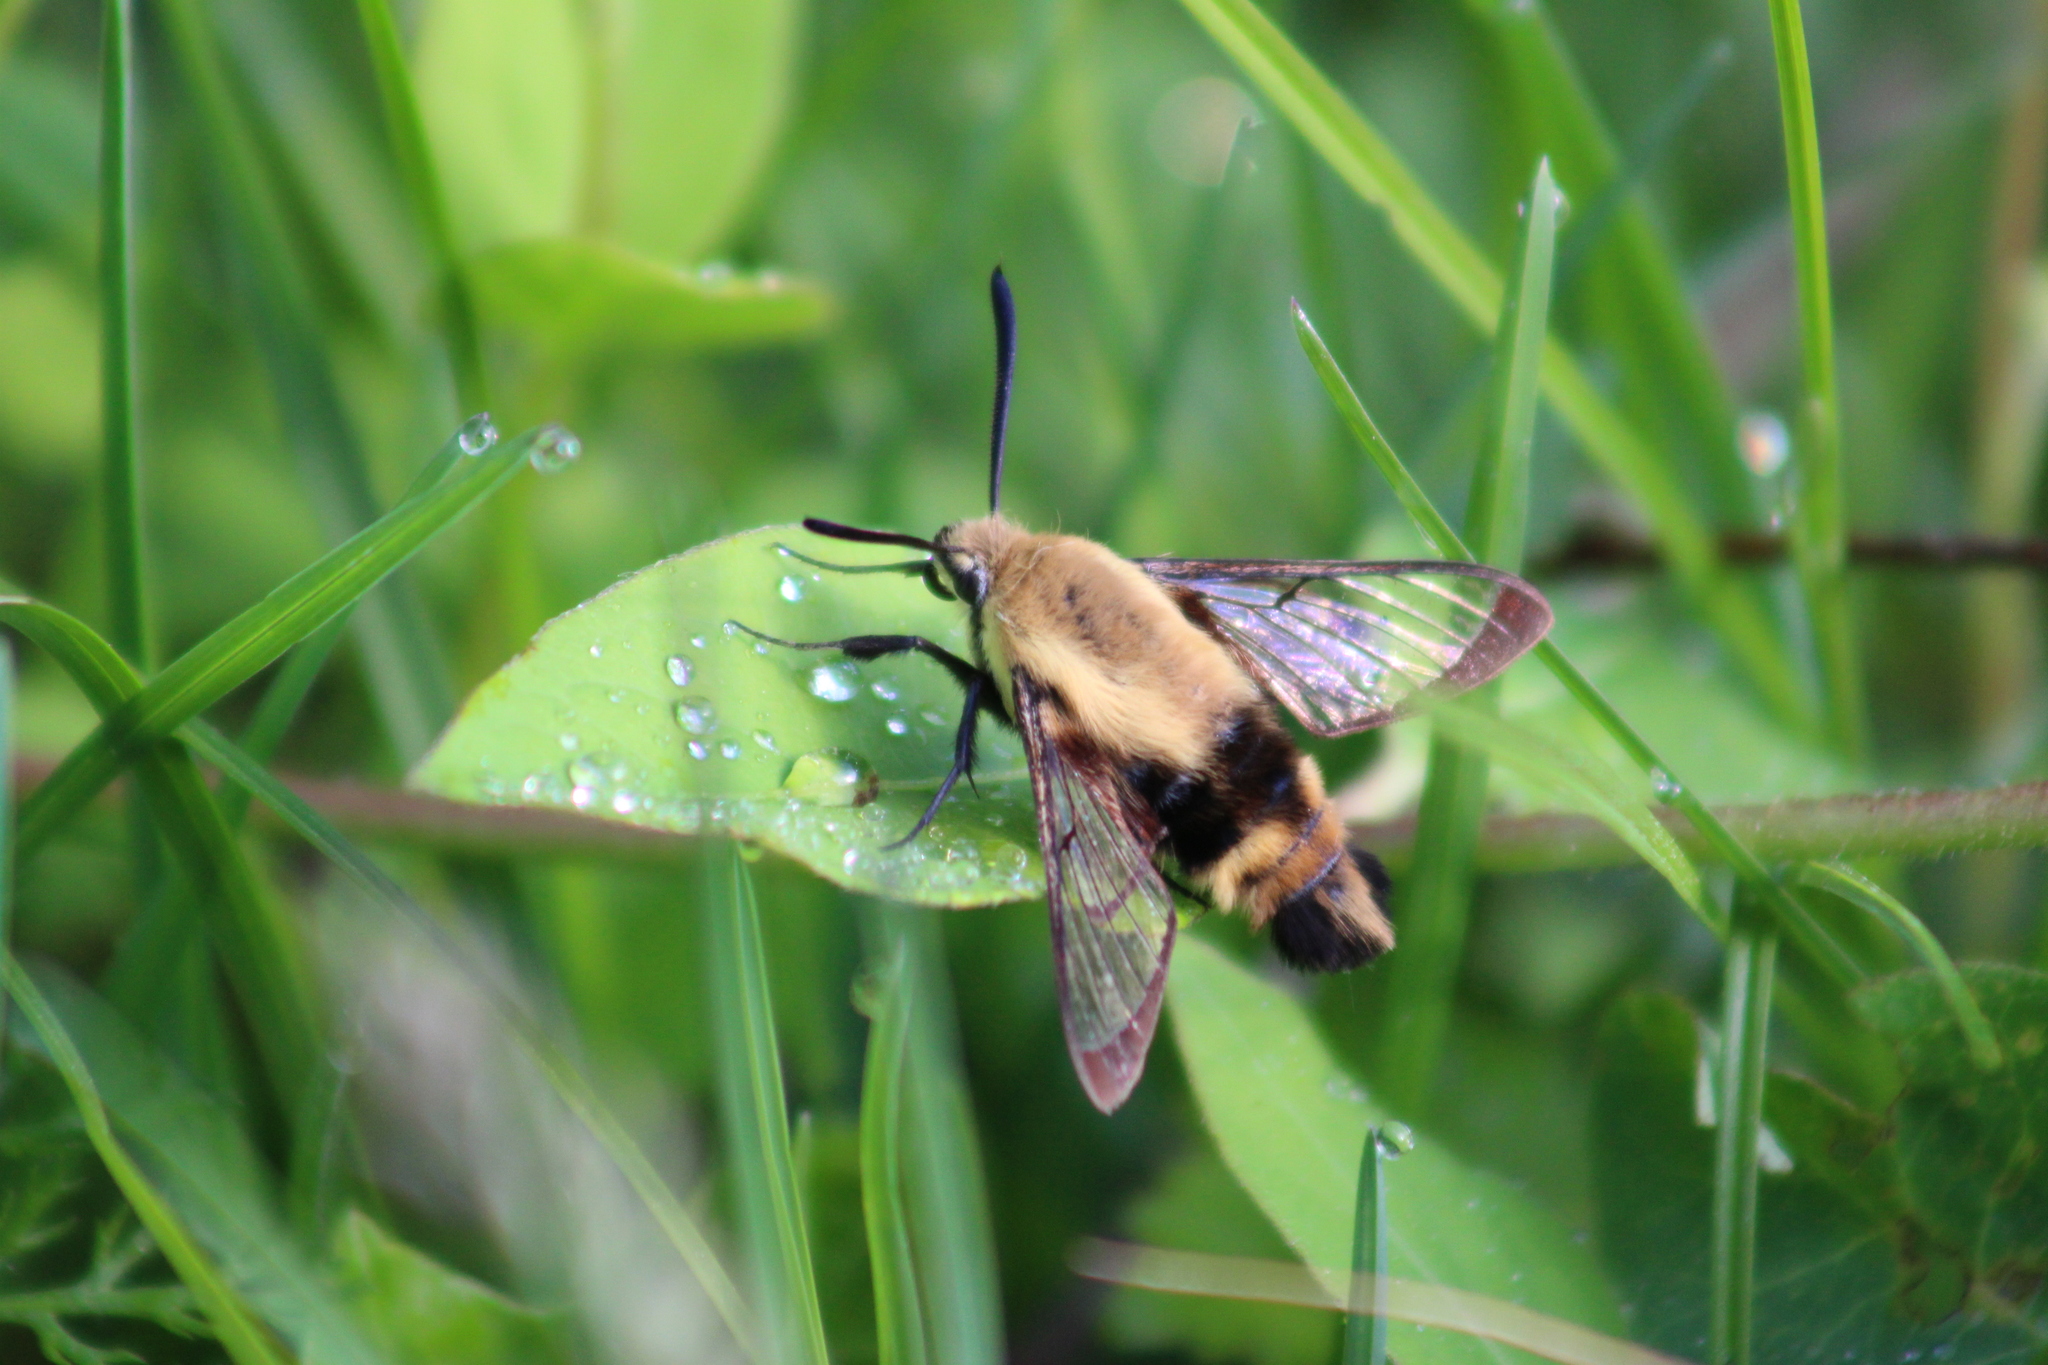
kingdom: Animalia
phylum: Arthropoda
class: Insecta
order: Lepidoptera
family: Sphingidae
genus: Hemaris
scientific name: Hemaris diffinis
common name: Bumblebee moth
